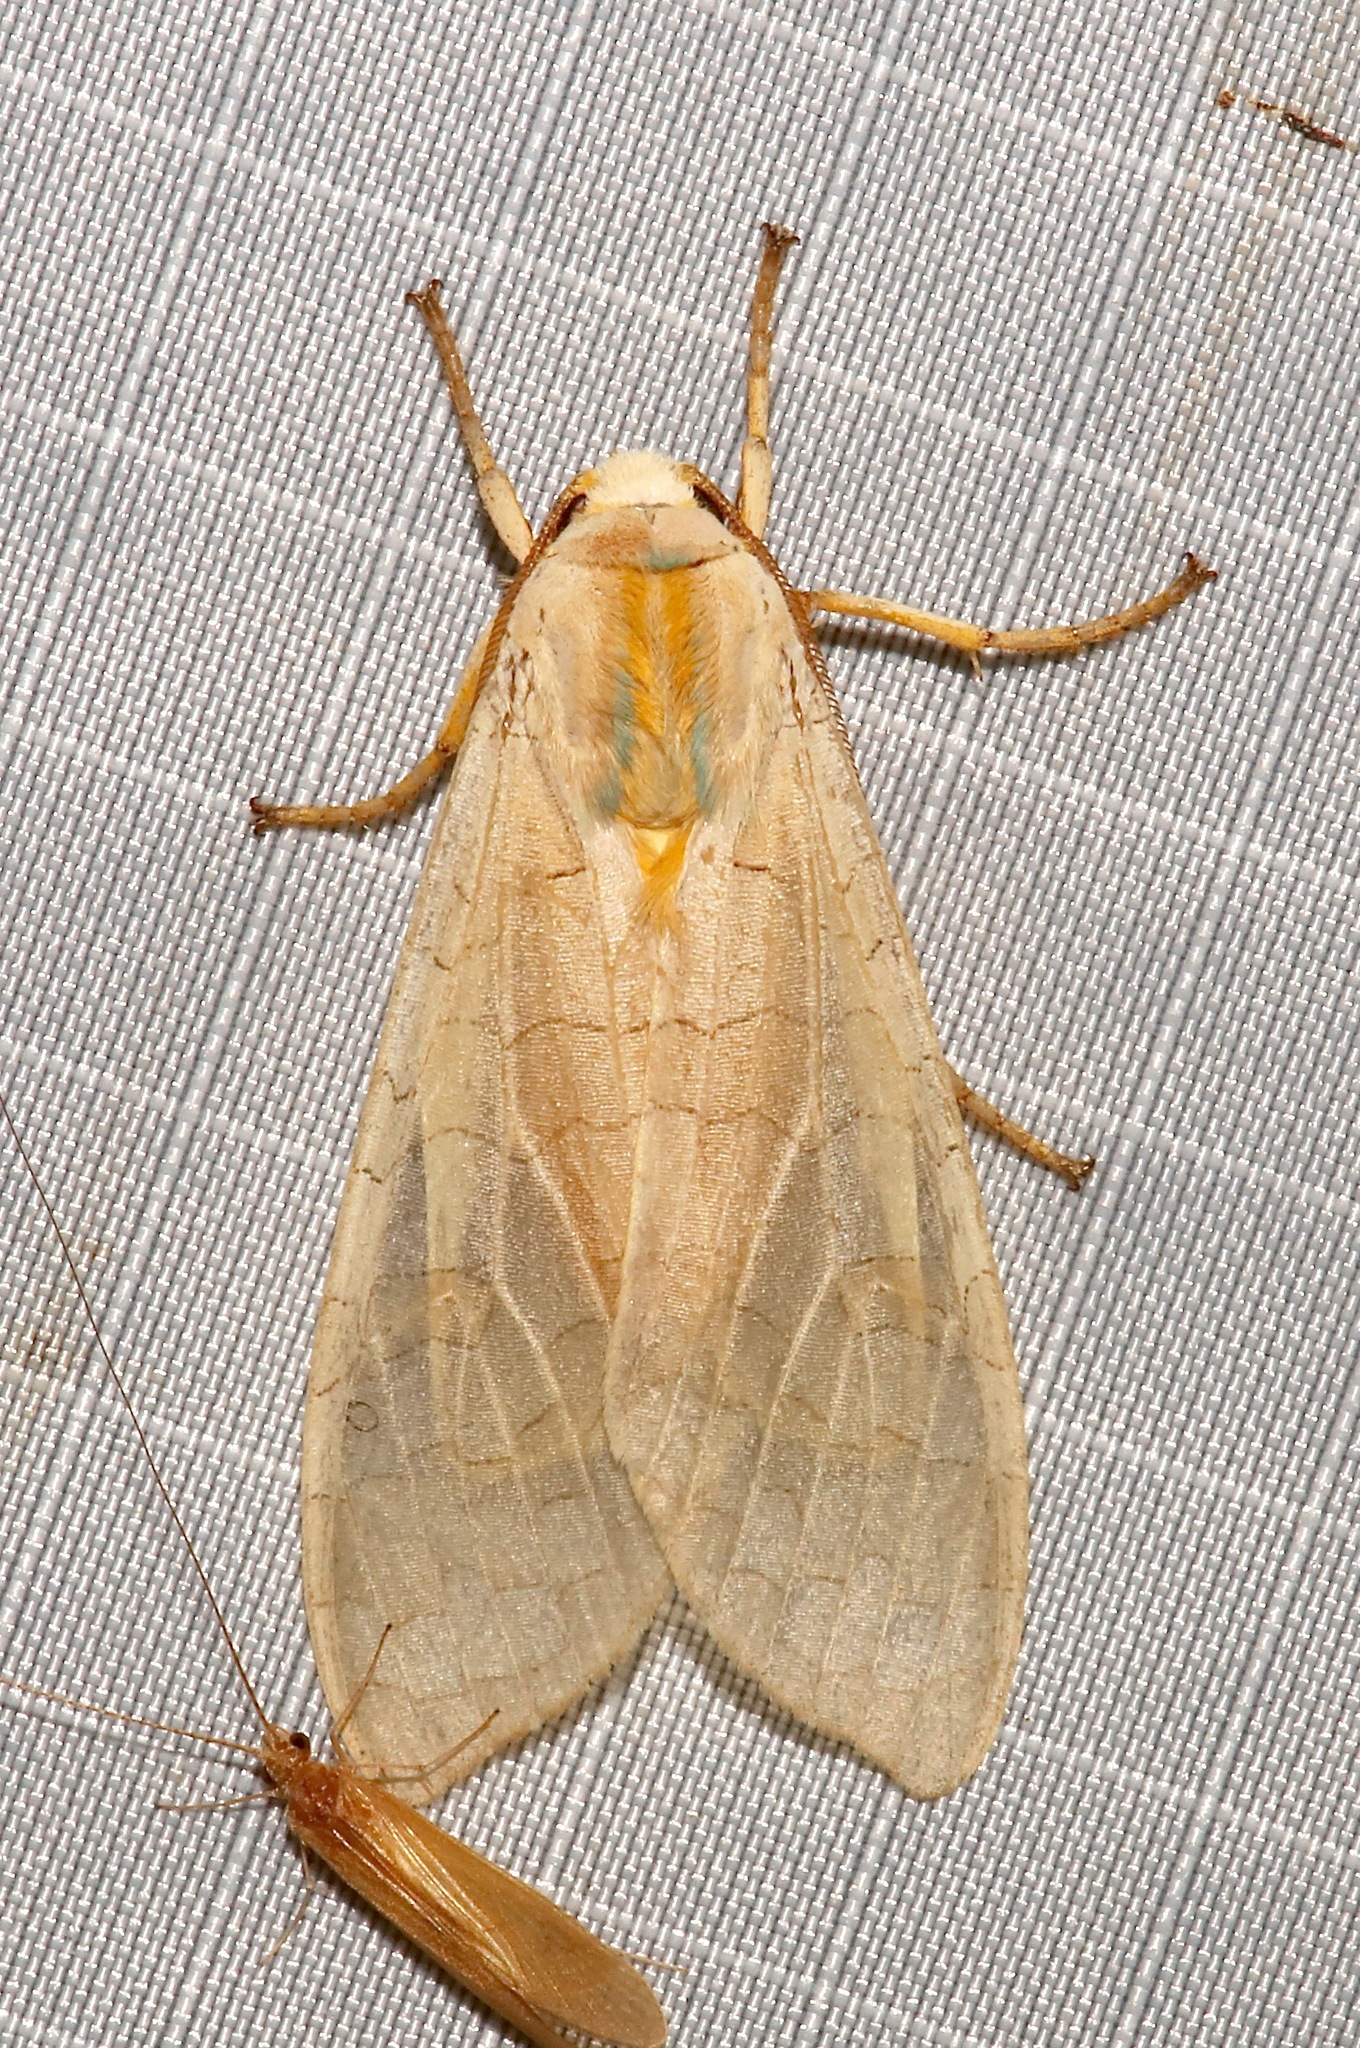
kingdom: Animalia
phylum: Arthropoda
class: Insecta
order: Lepidoptera
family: Erebidae
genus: Halysidota
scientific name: Halysidota
